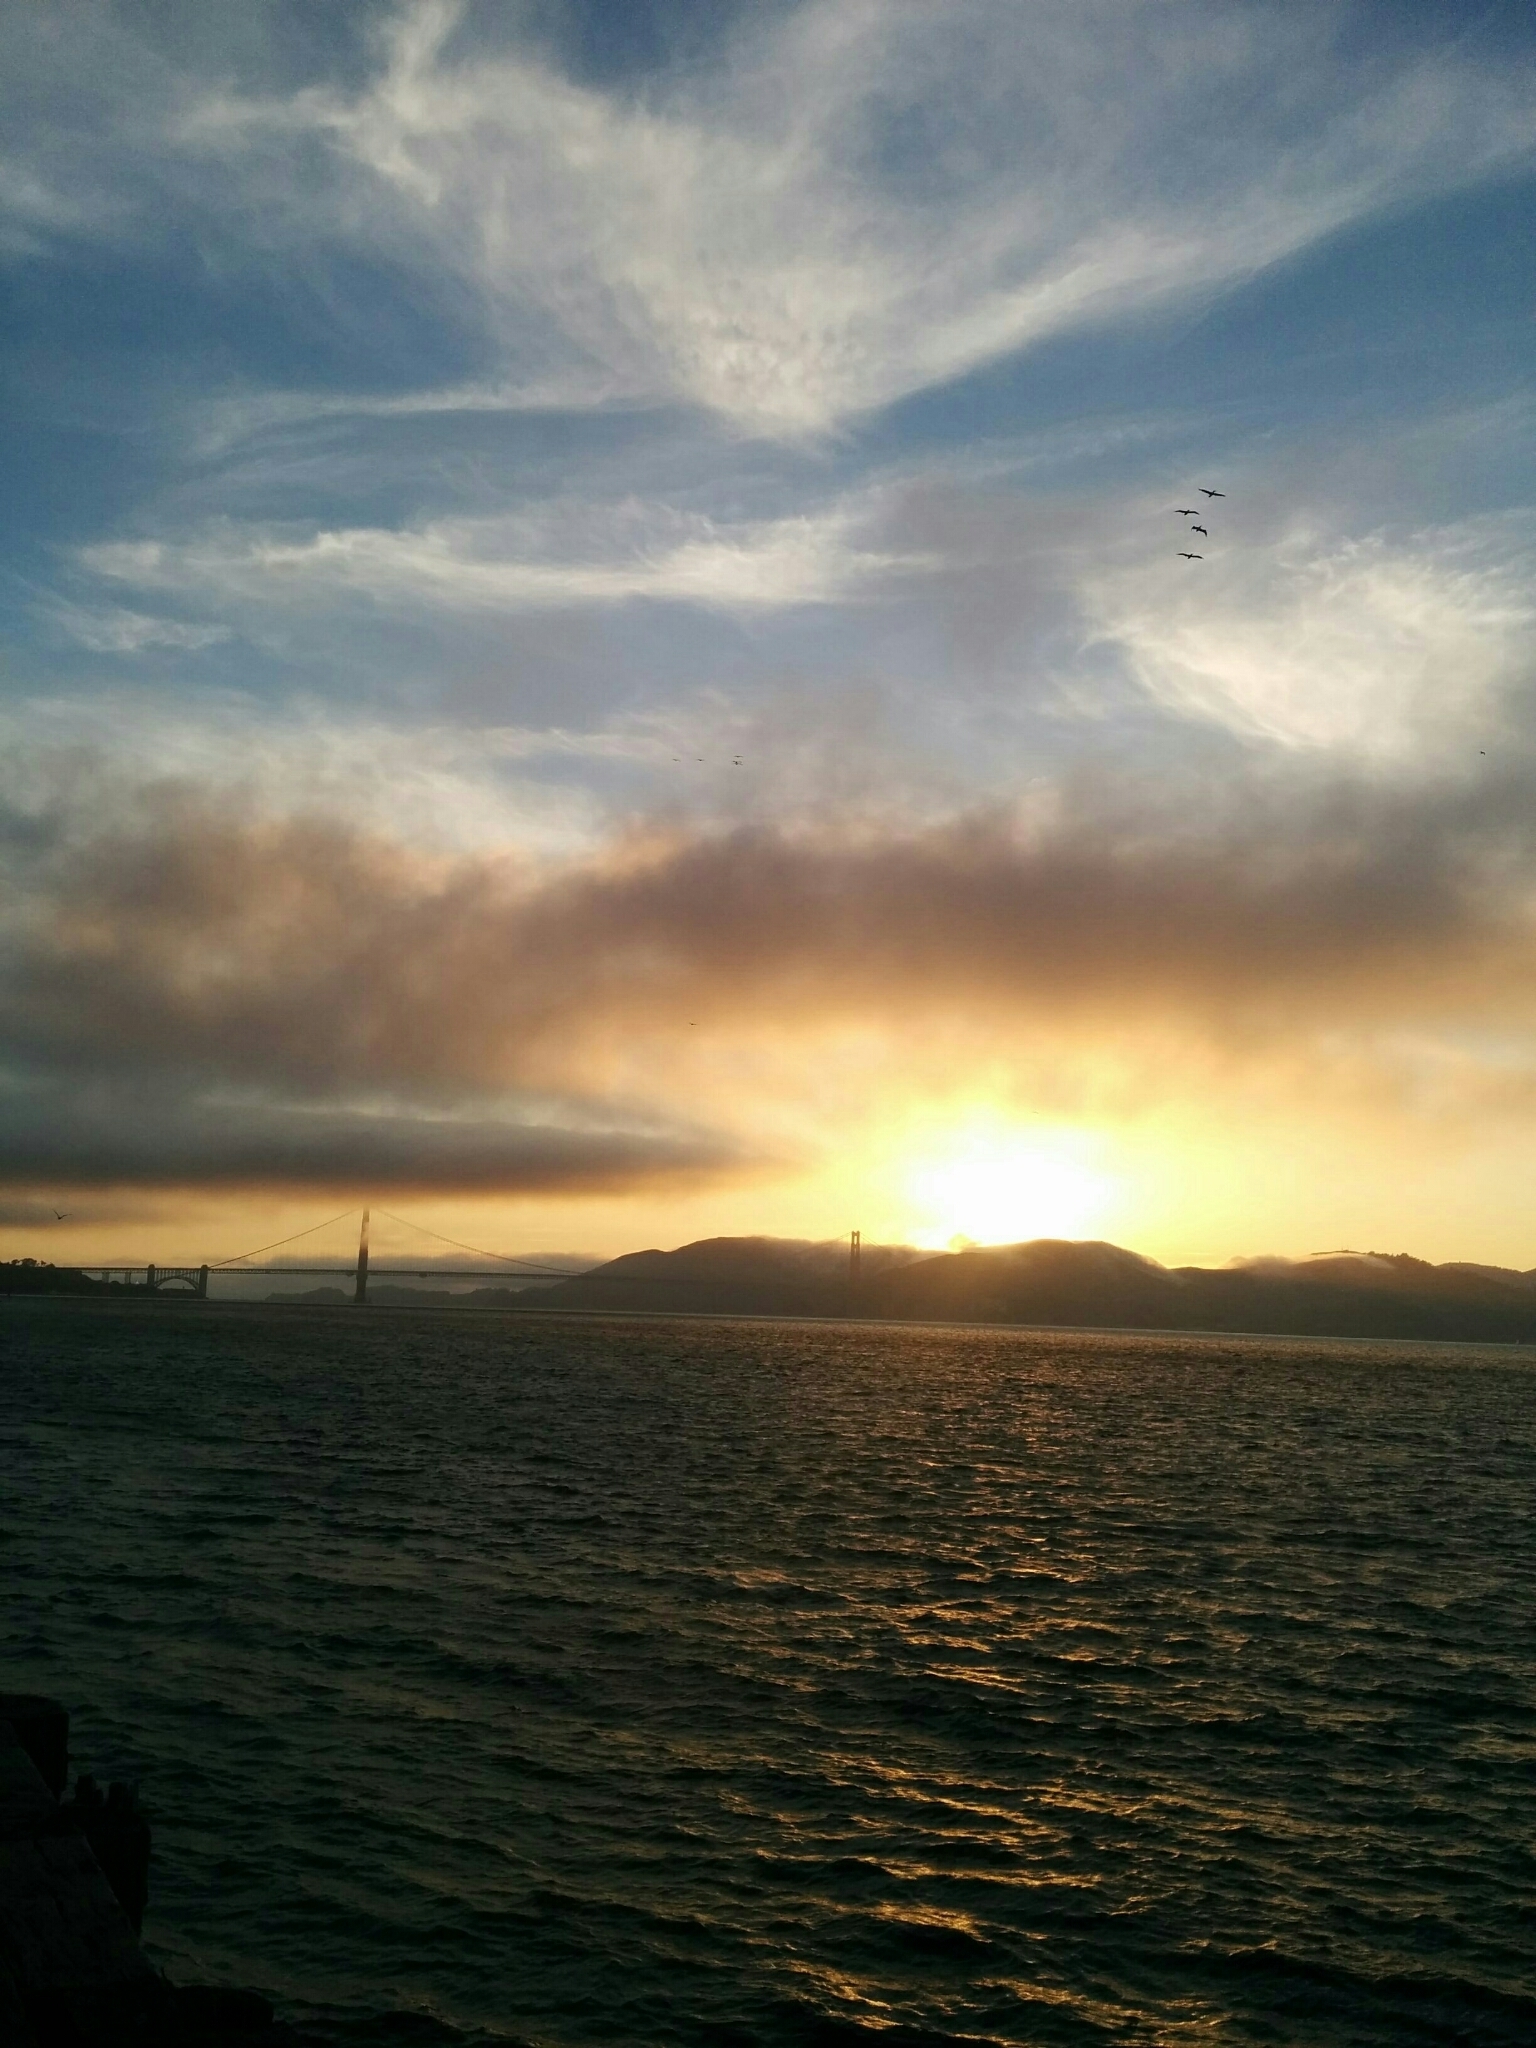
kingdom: Animalia
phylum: Chordata
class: Aves
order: Pelecaniformes
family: Pelecanidae
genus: Pelecanus
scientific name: Pelecanus occidentalis
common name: Brown pelican
